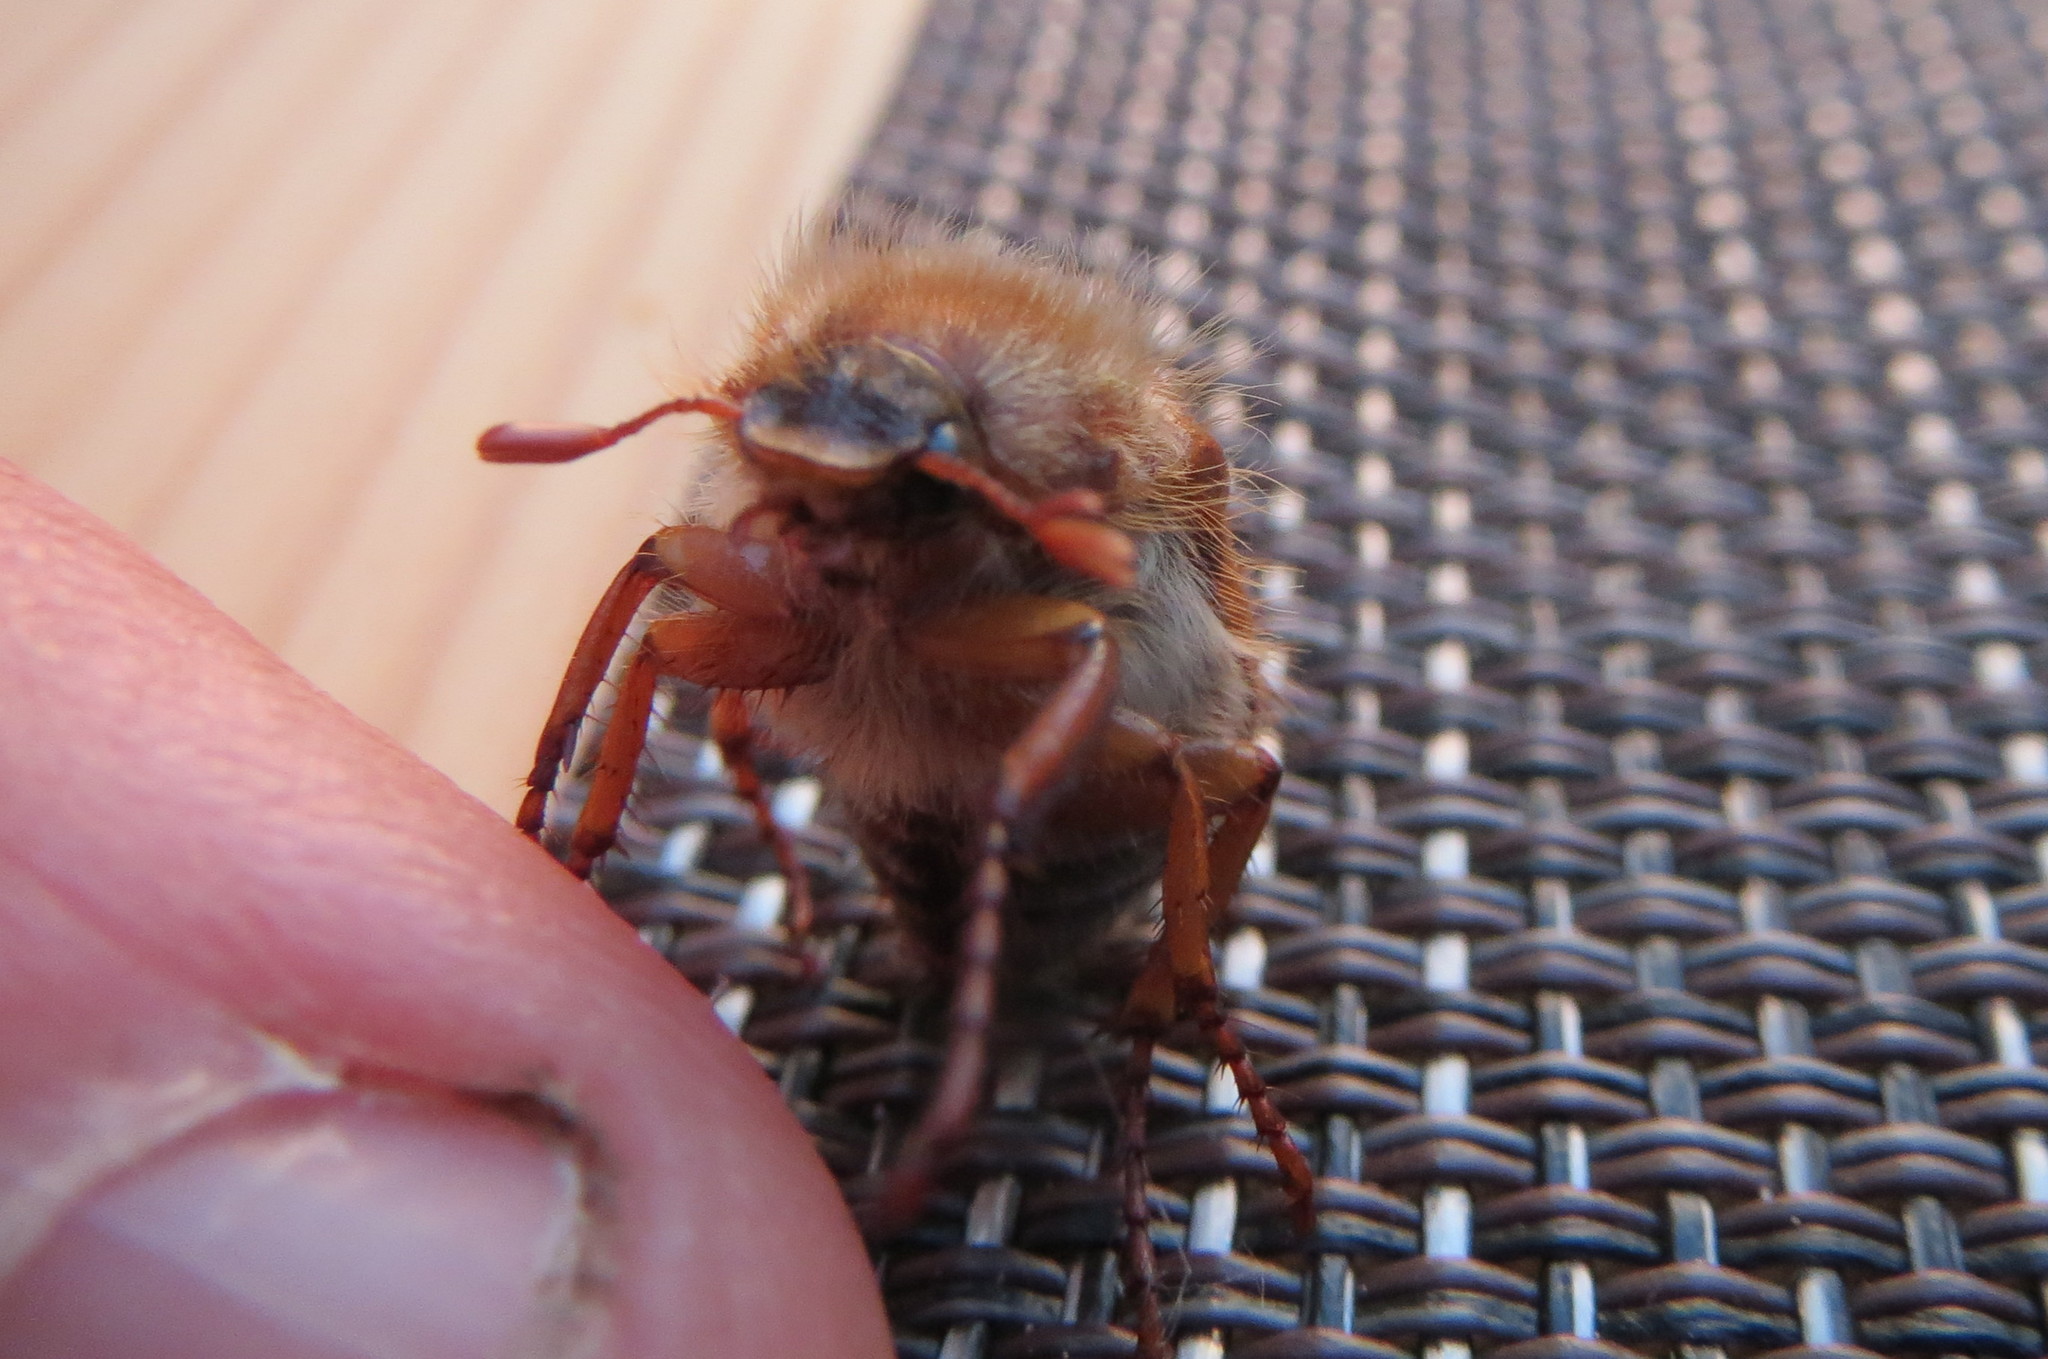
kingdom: Animalia
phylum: Arthropoda
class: Insecta
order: Coleoptera
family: Scarabaeidae
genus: Amphimallon
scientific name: Amphimallon solstitiale
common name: Summer chafer
